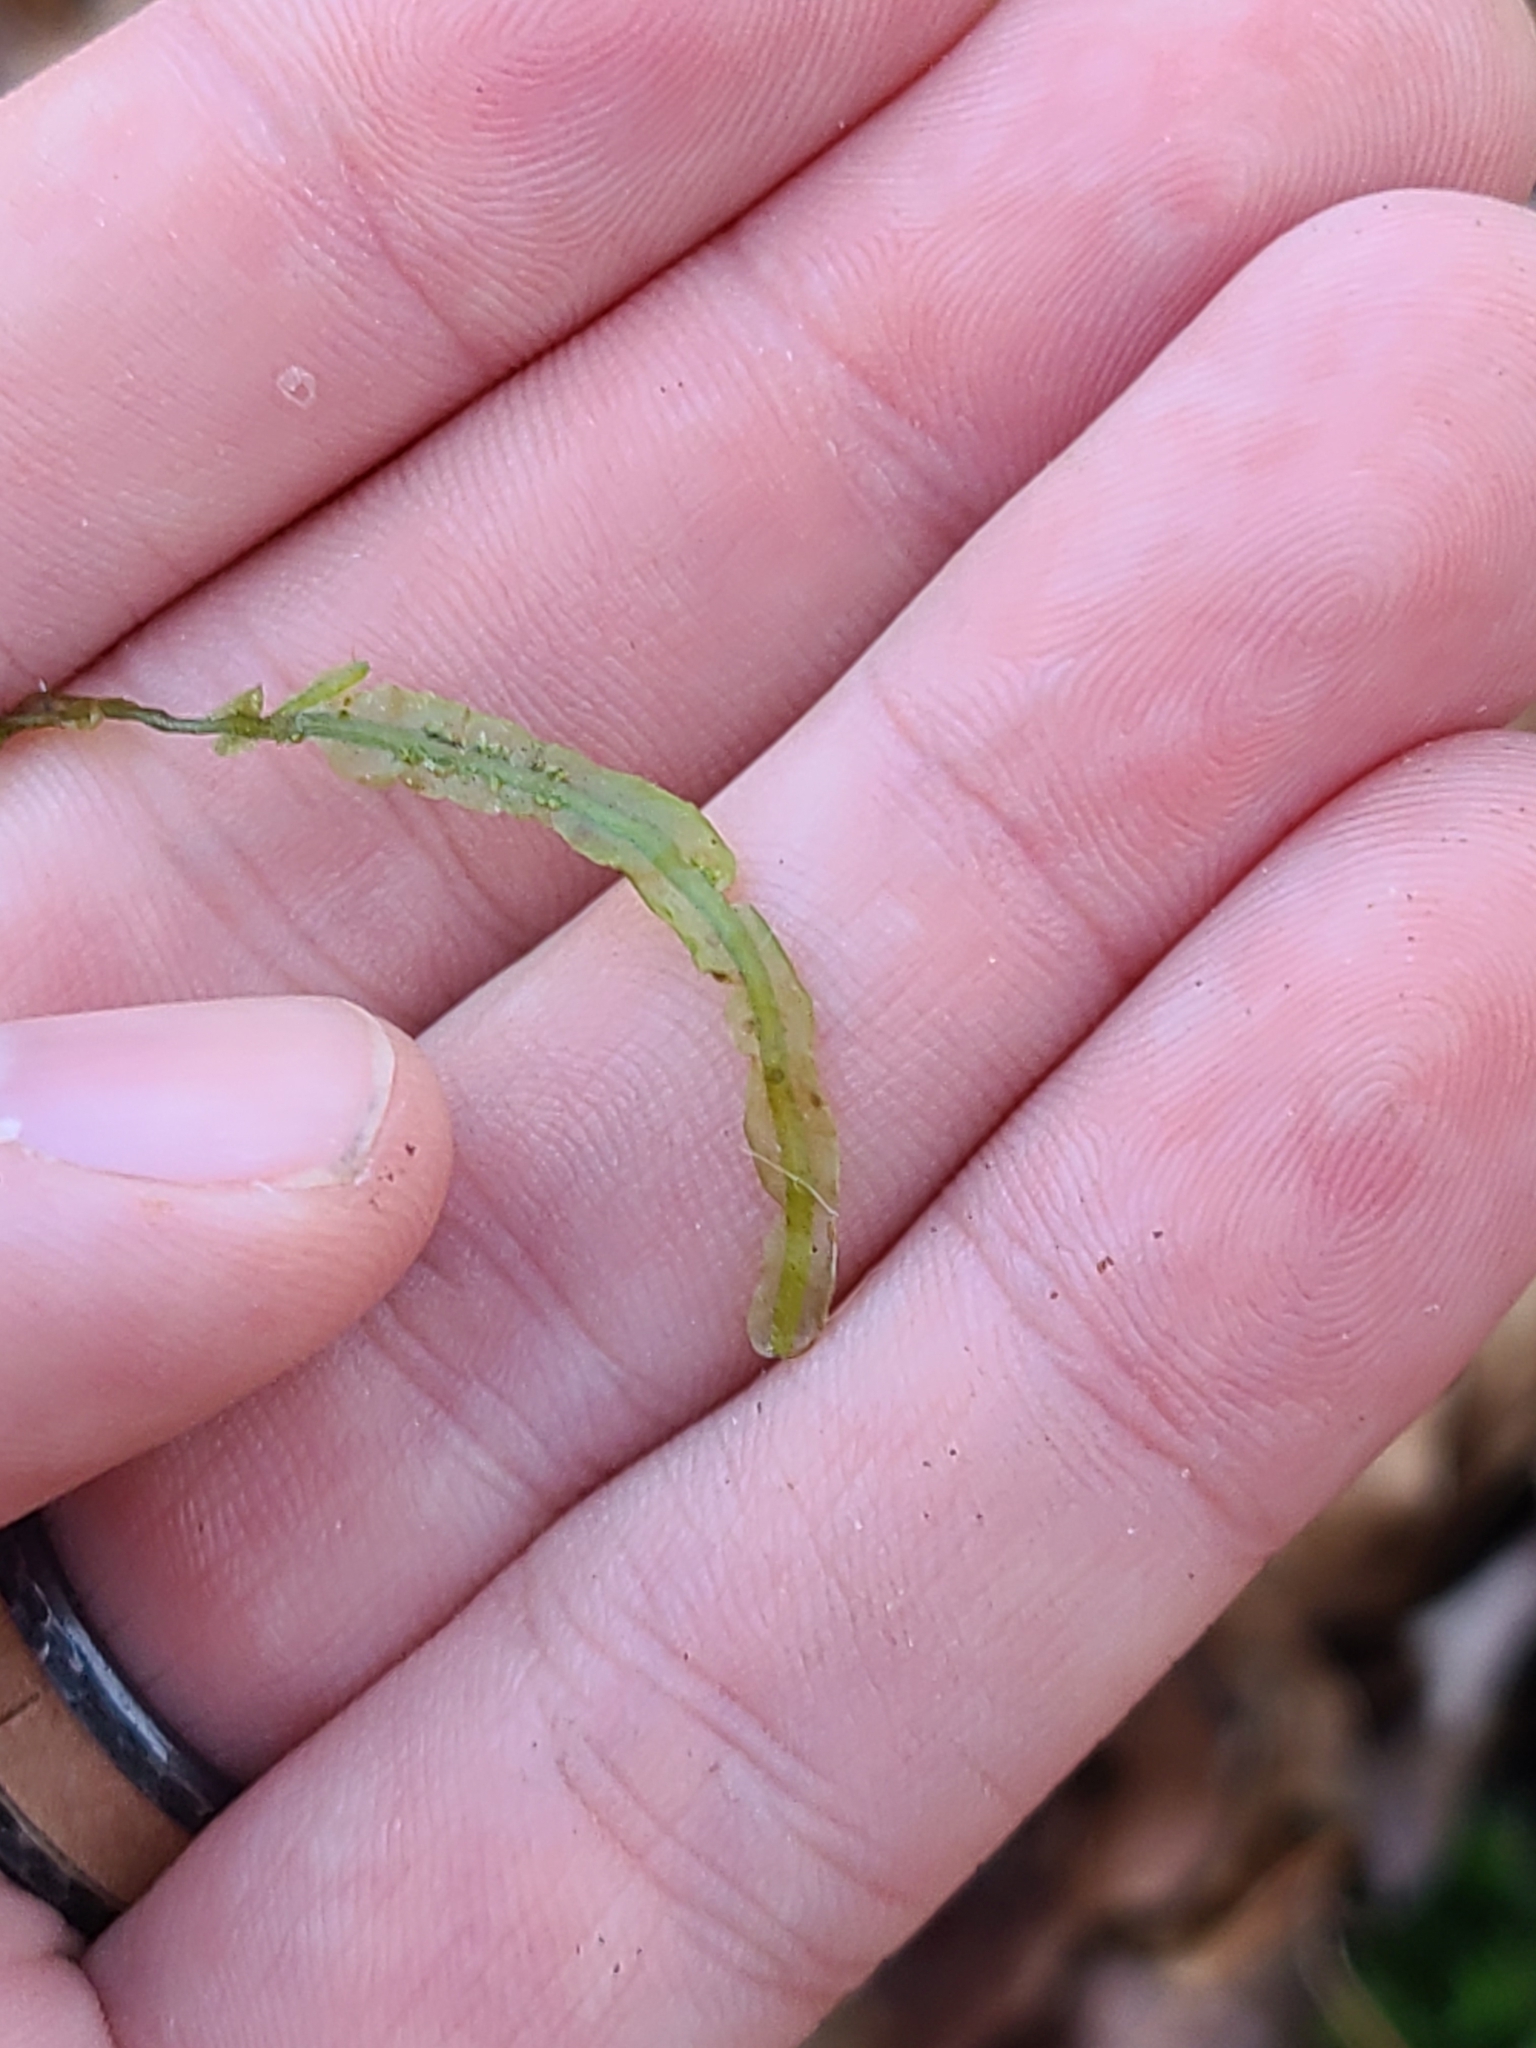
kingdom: Plantae
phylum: Marchantiophyta
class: Jungermanniopsida
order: Pallaviciniales
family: Pallaviciniaceae
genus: Pallavicinia
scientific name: Pallavicinia lyellii
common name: Veilwort
